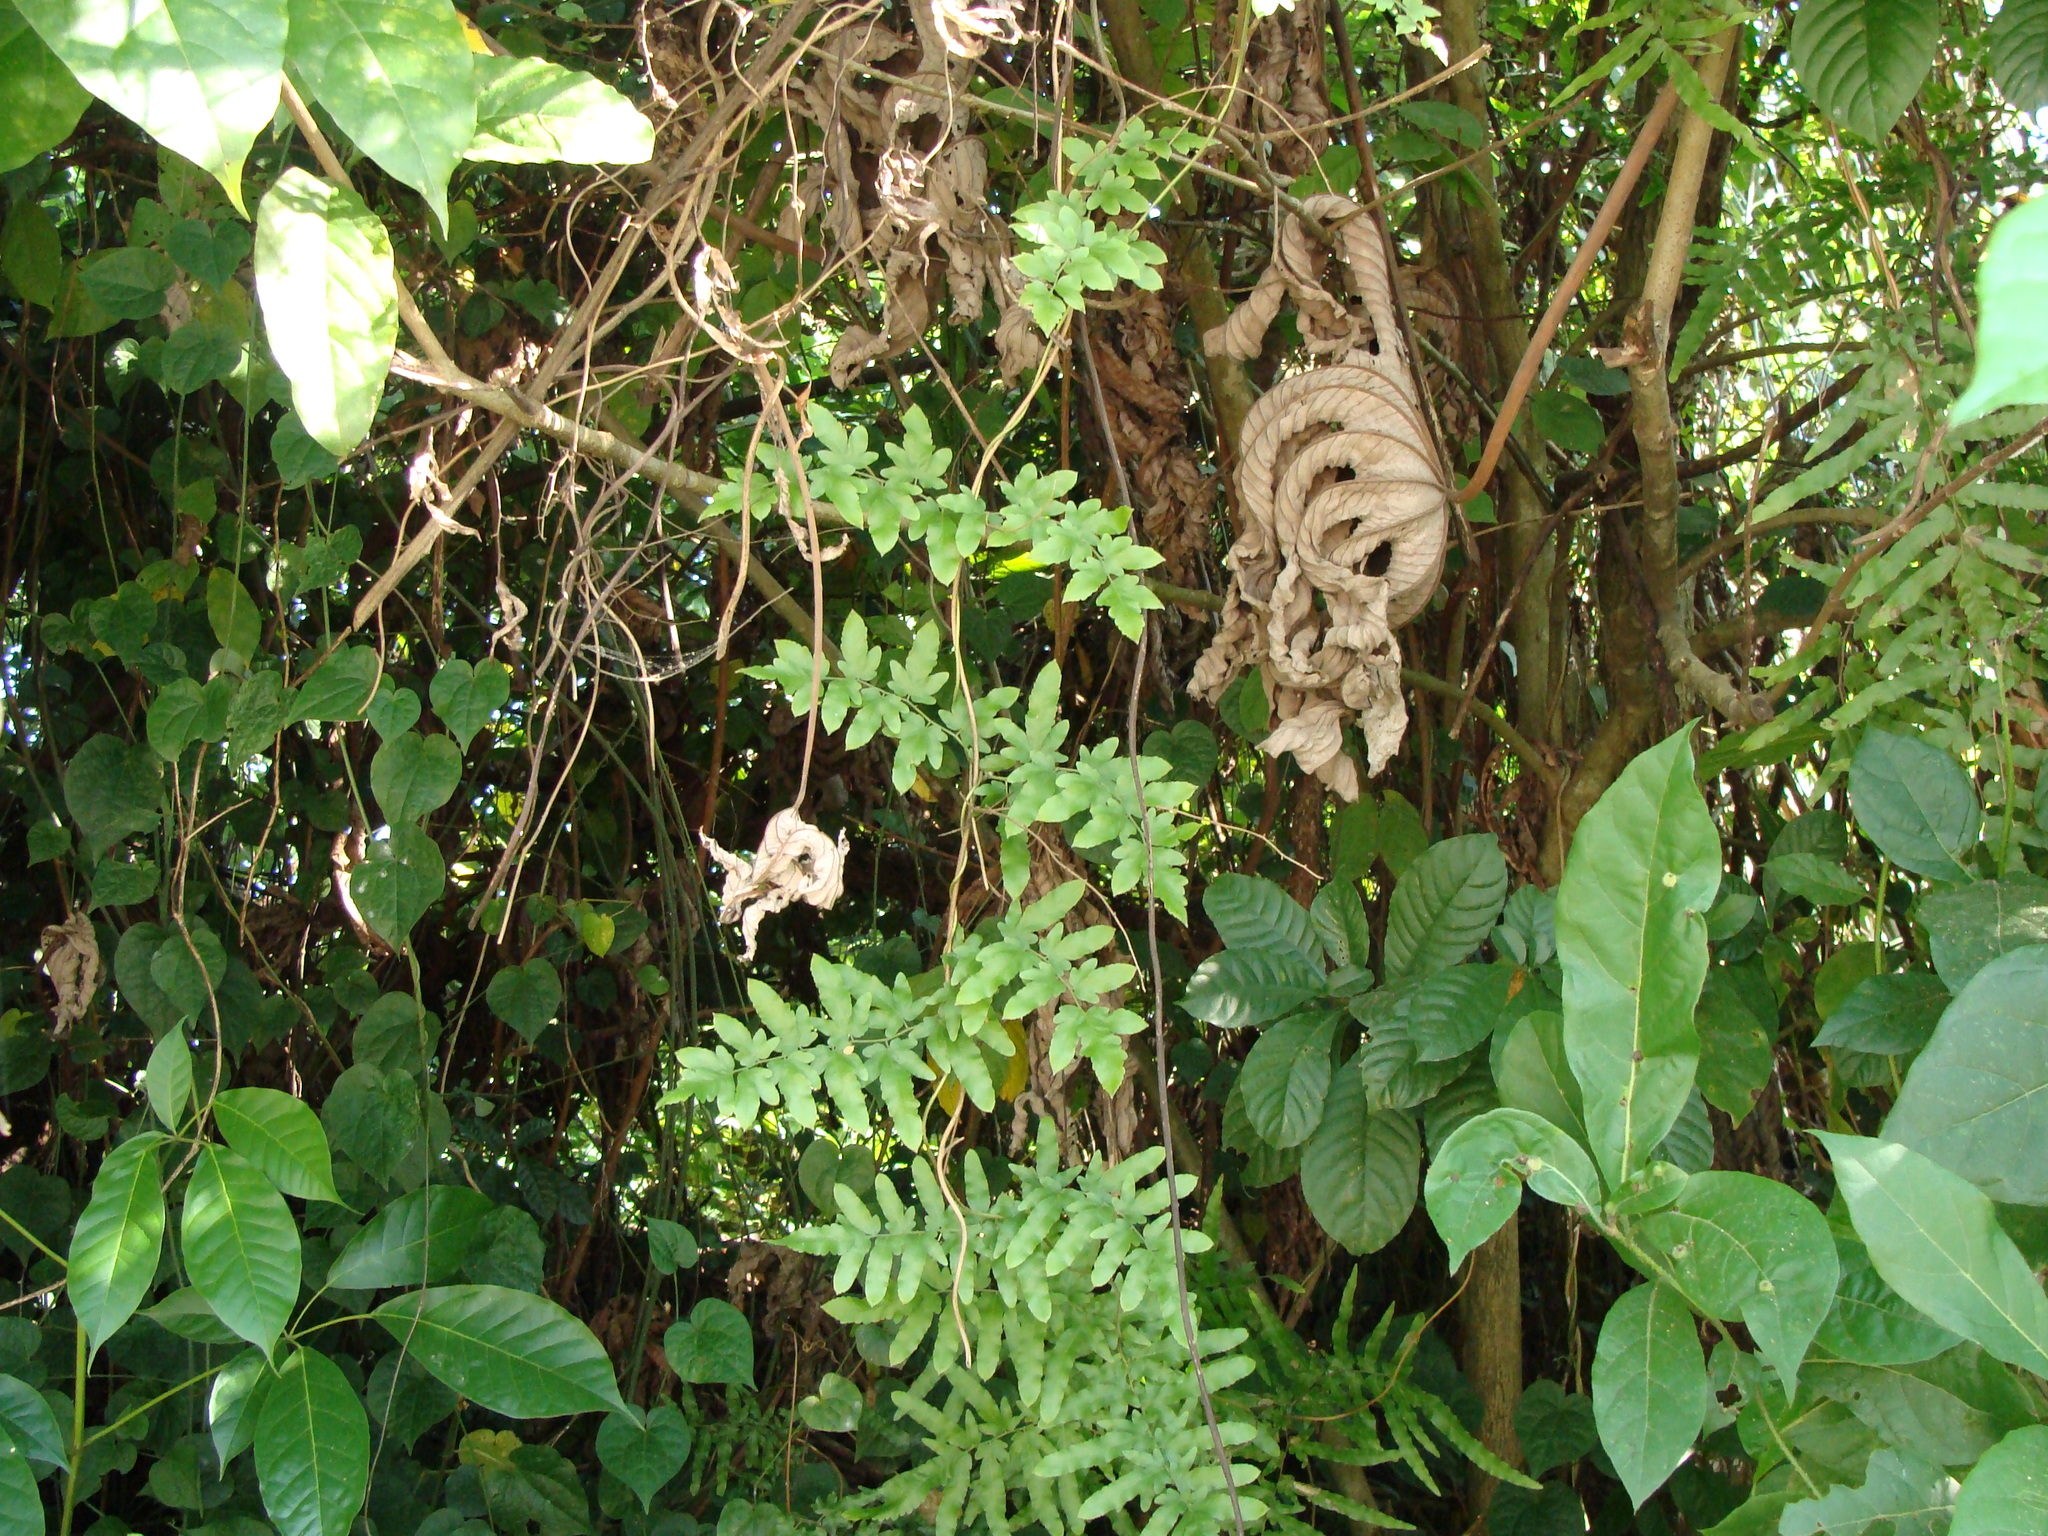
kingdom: Plantae
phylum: Tracheophyta
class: Polypodiopsida
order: Schizaeales
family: Lygodiaceae
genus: Lygodium
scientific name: Lygodium venustum
